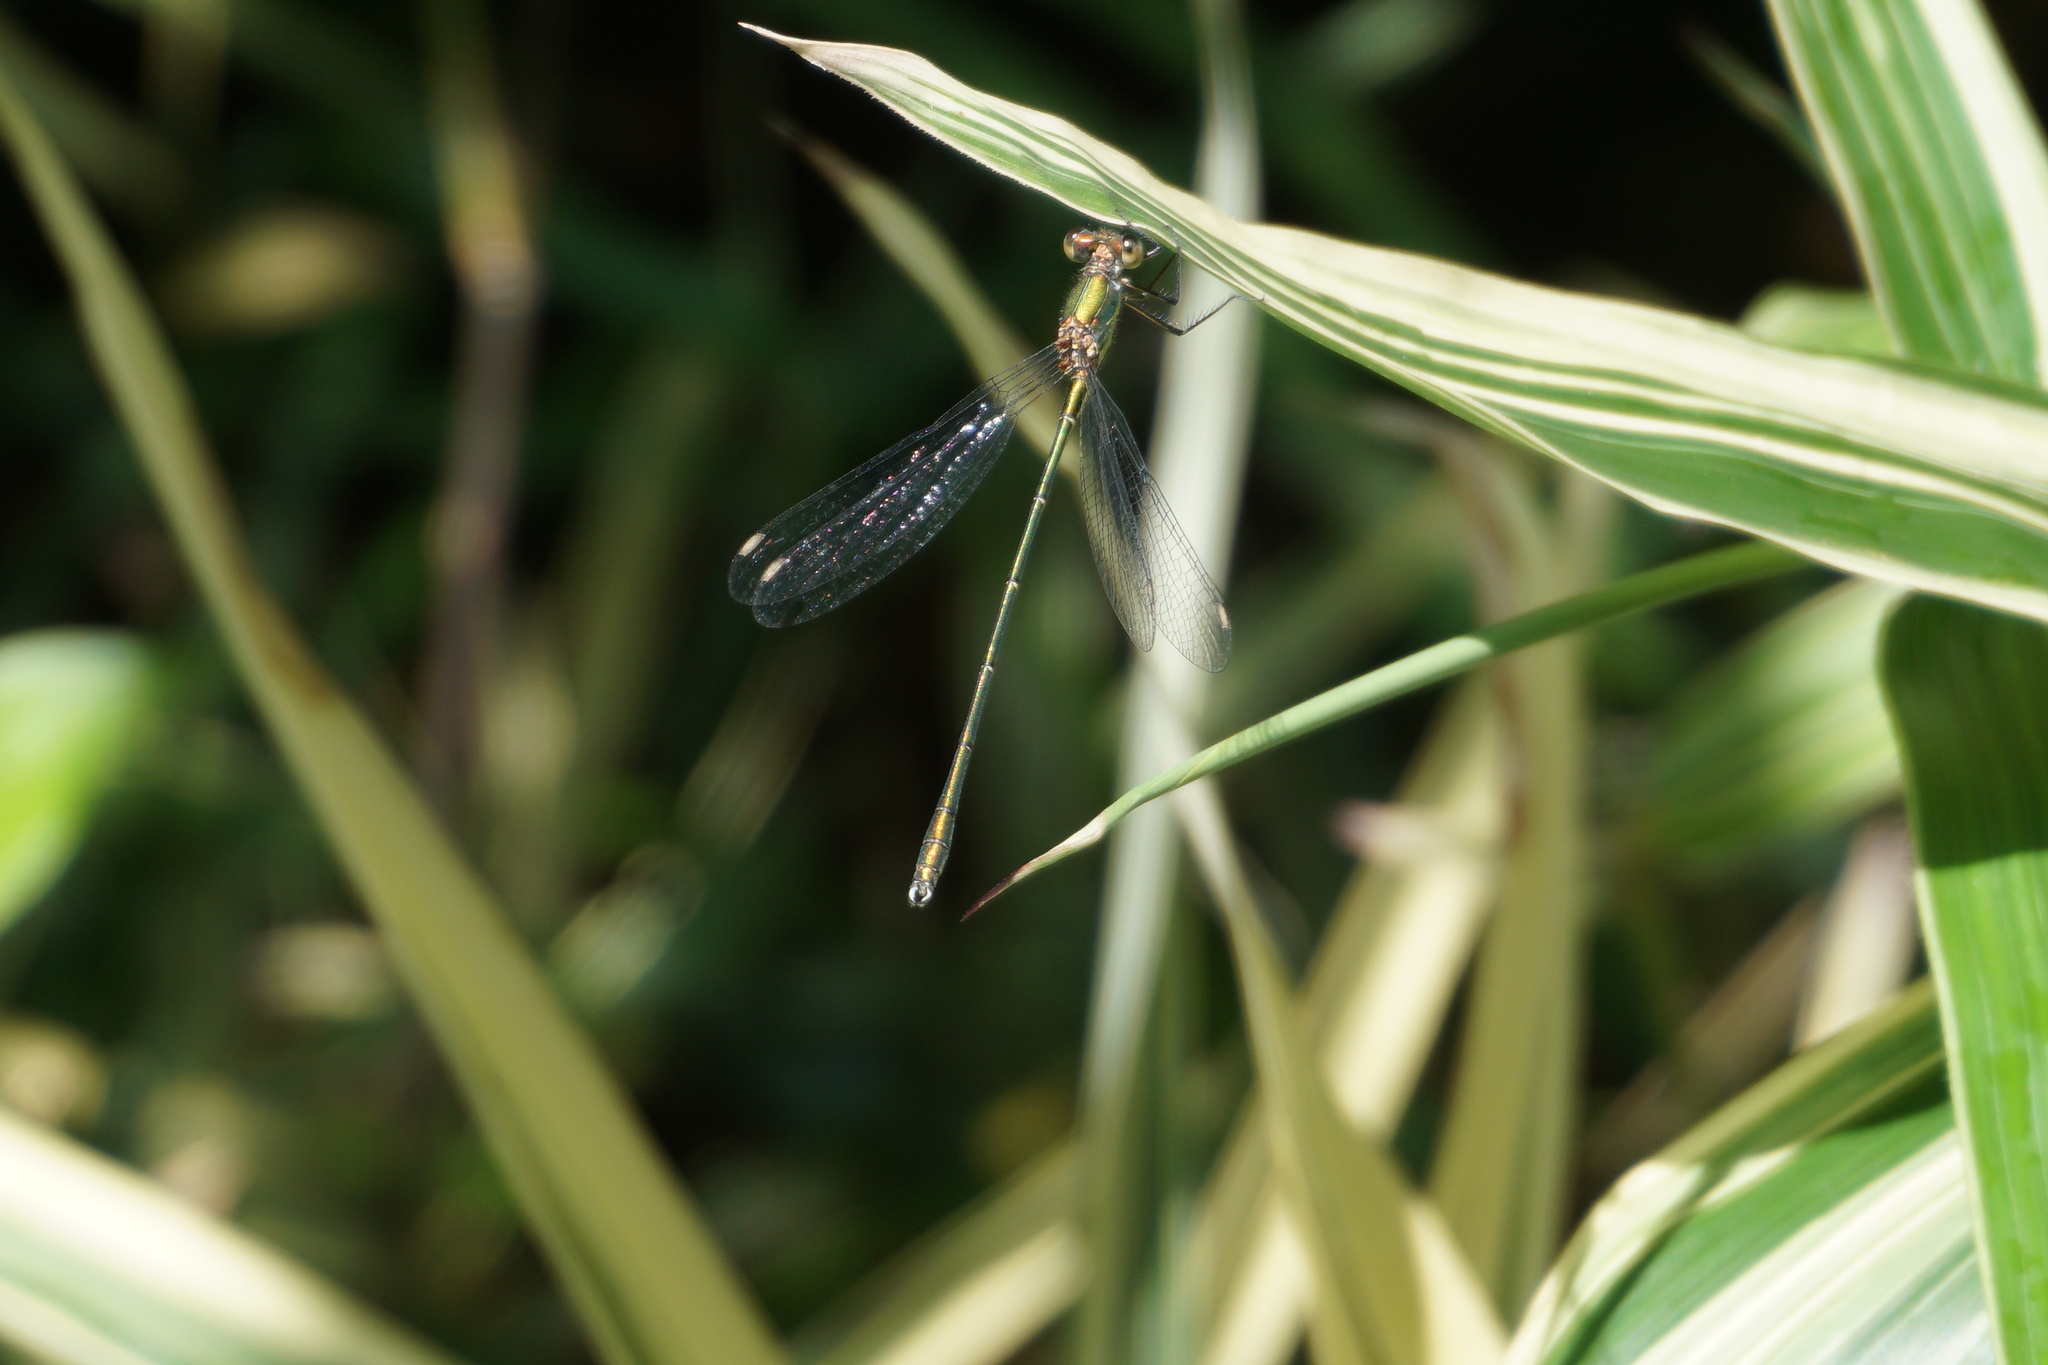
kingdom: Animalia
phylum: Arthropoda
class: Insecta
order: Odonata
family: Lestidae
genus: Chalcolestes
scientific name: Chalcolestes viridis
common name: Green emerald damselfly
